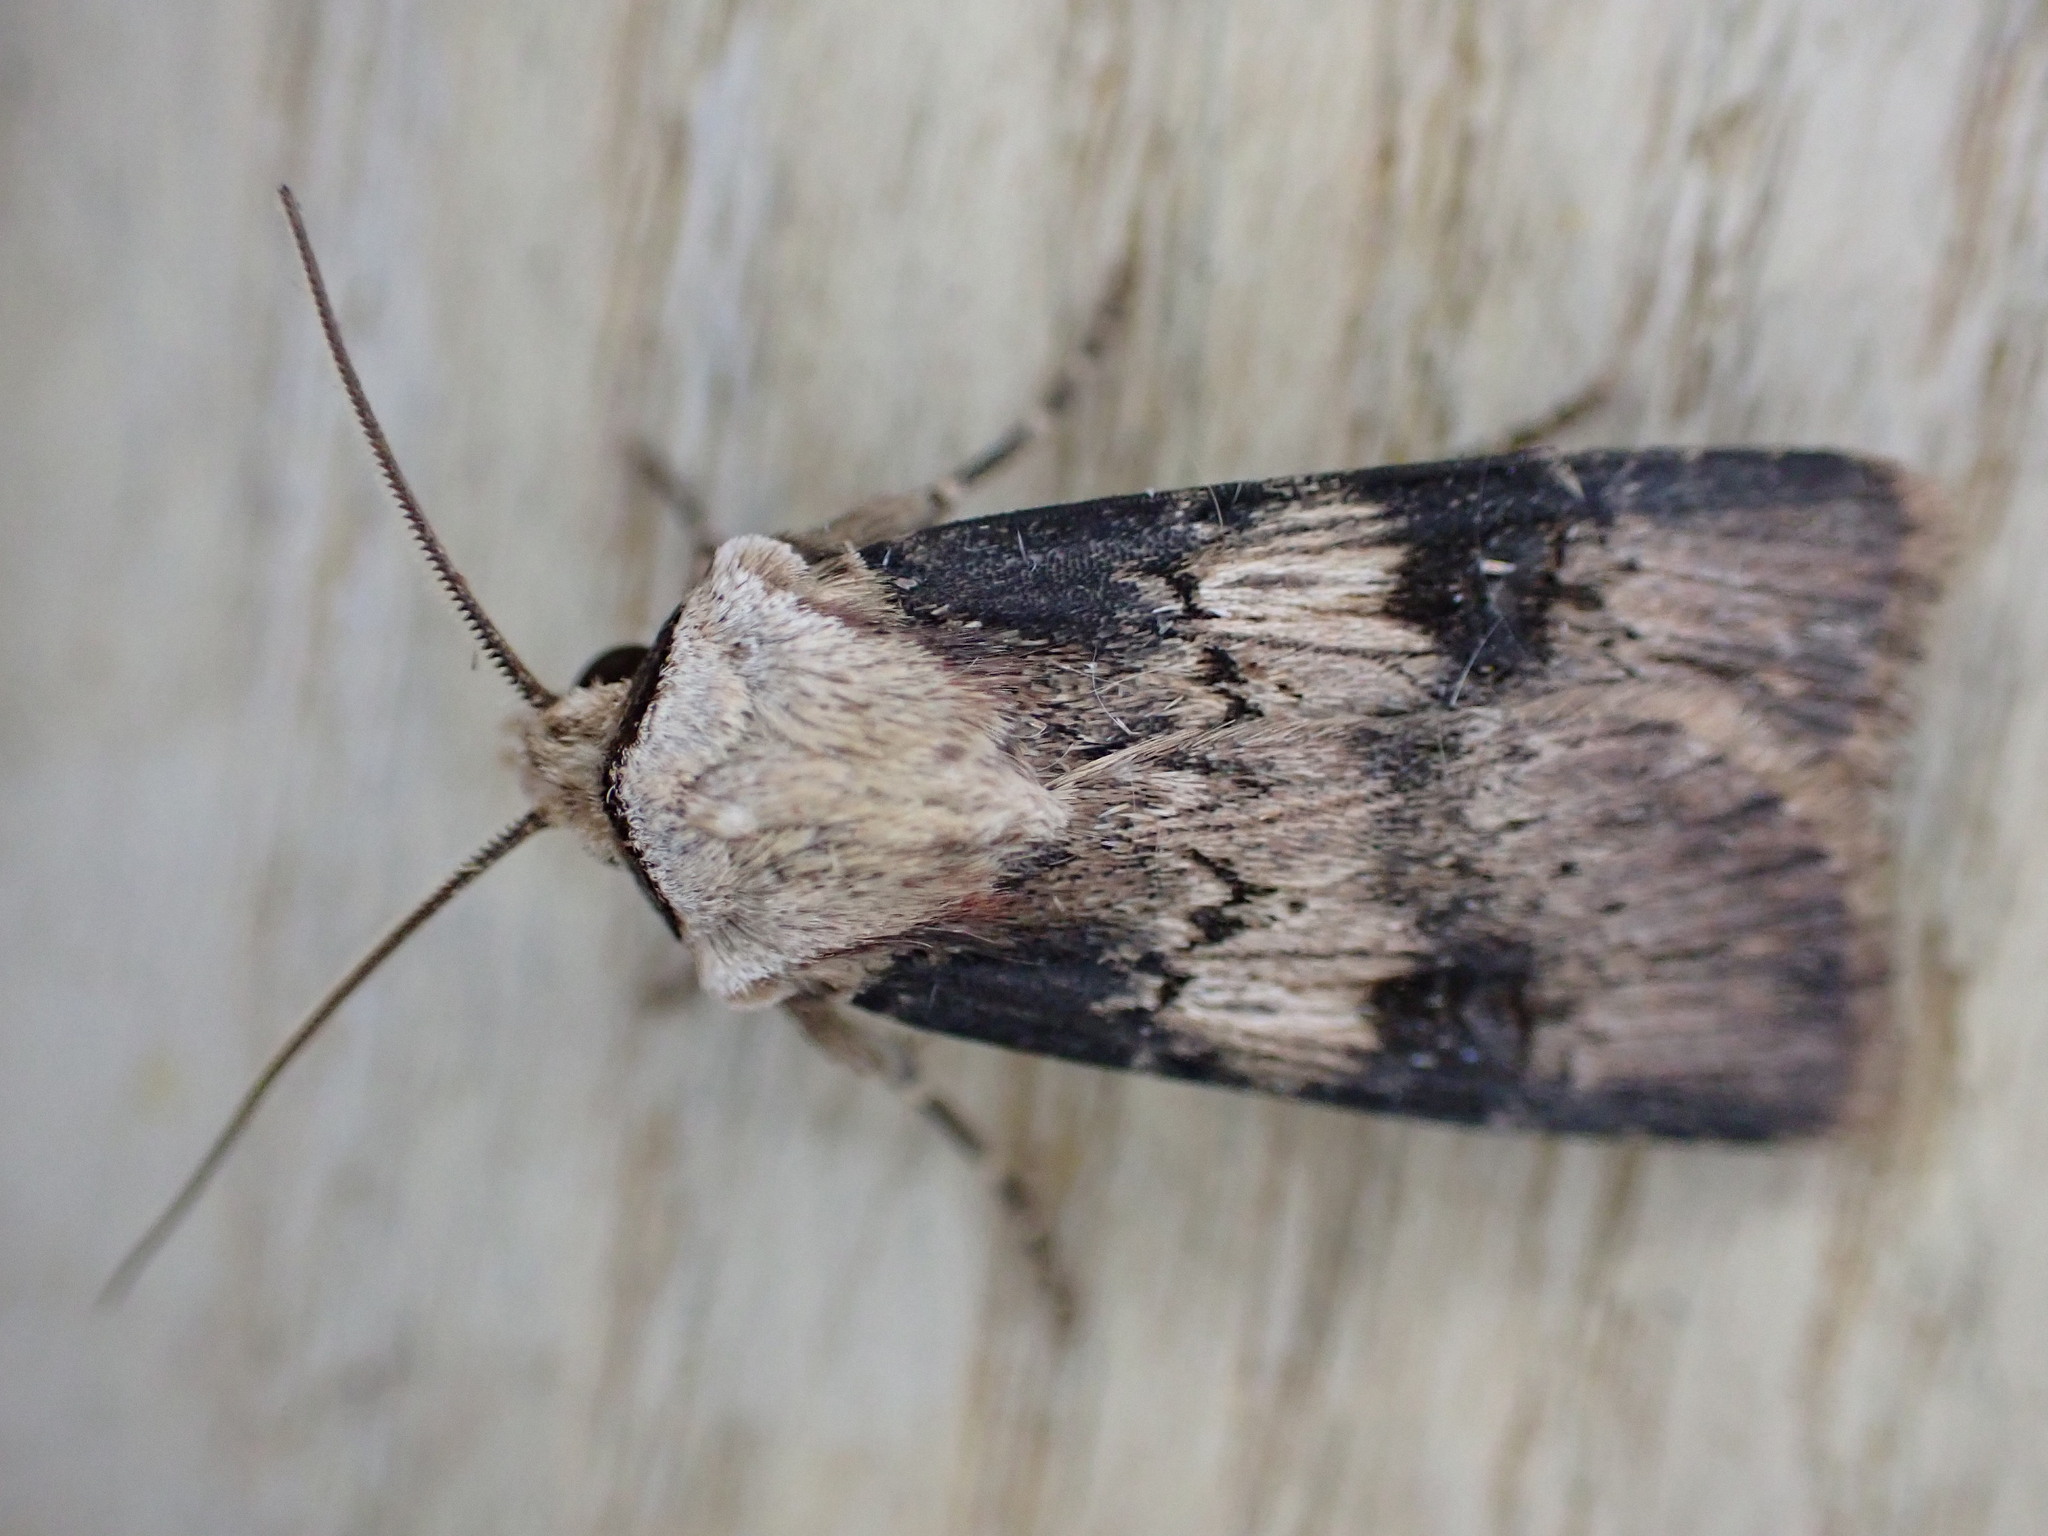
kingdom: Animalia
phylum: Arthropoda
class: Insecta
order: Lepidoptera
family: Noctuidae
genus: Agrotis
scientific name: Agrotis puta
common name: Shuttle-shaped dart
